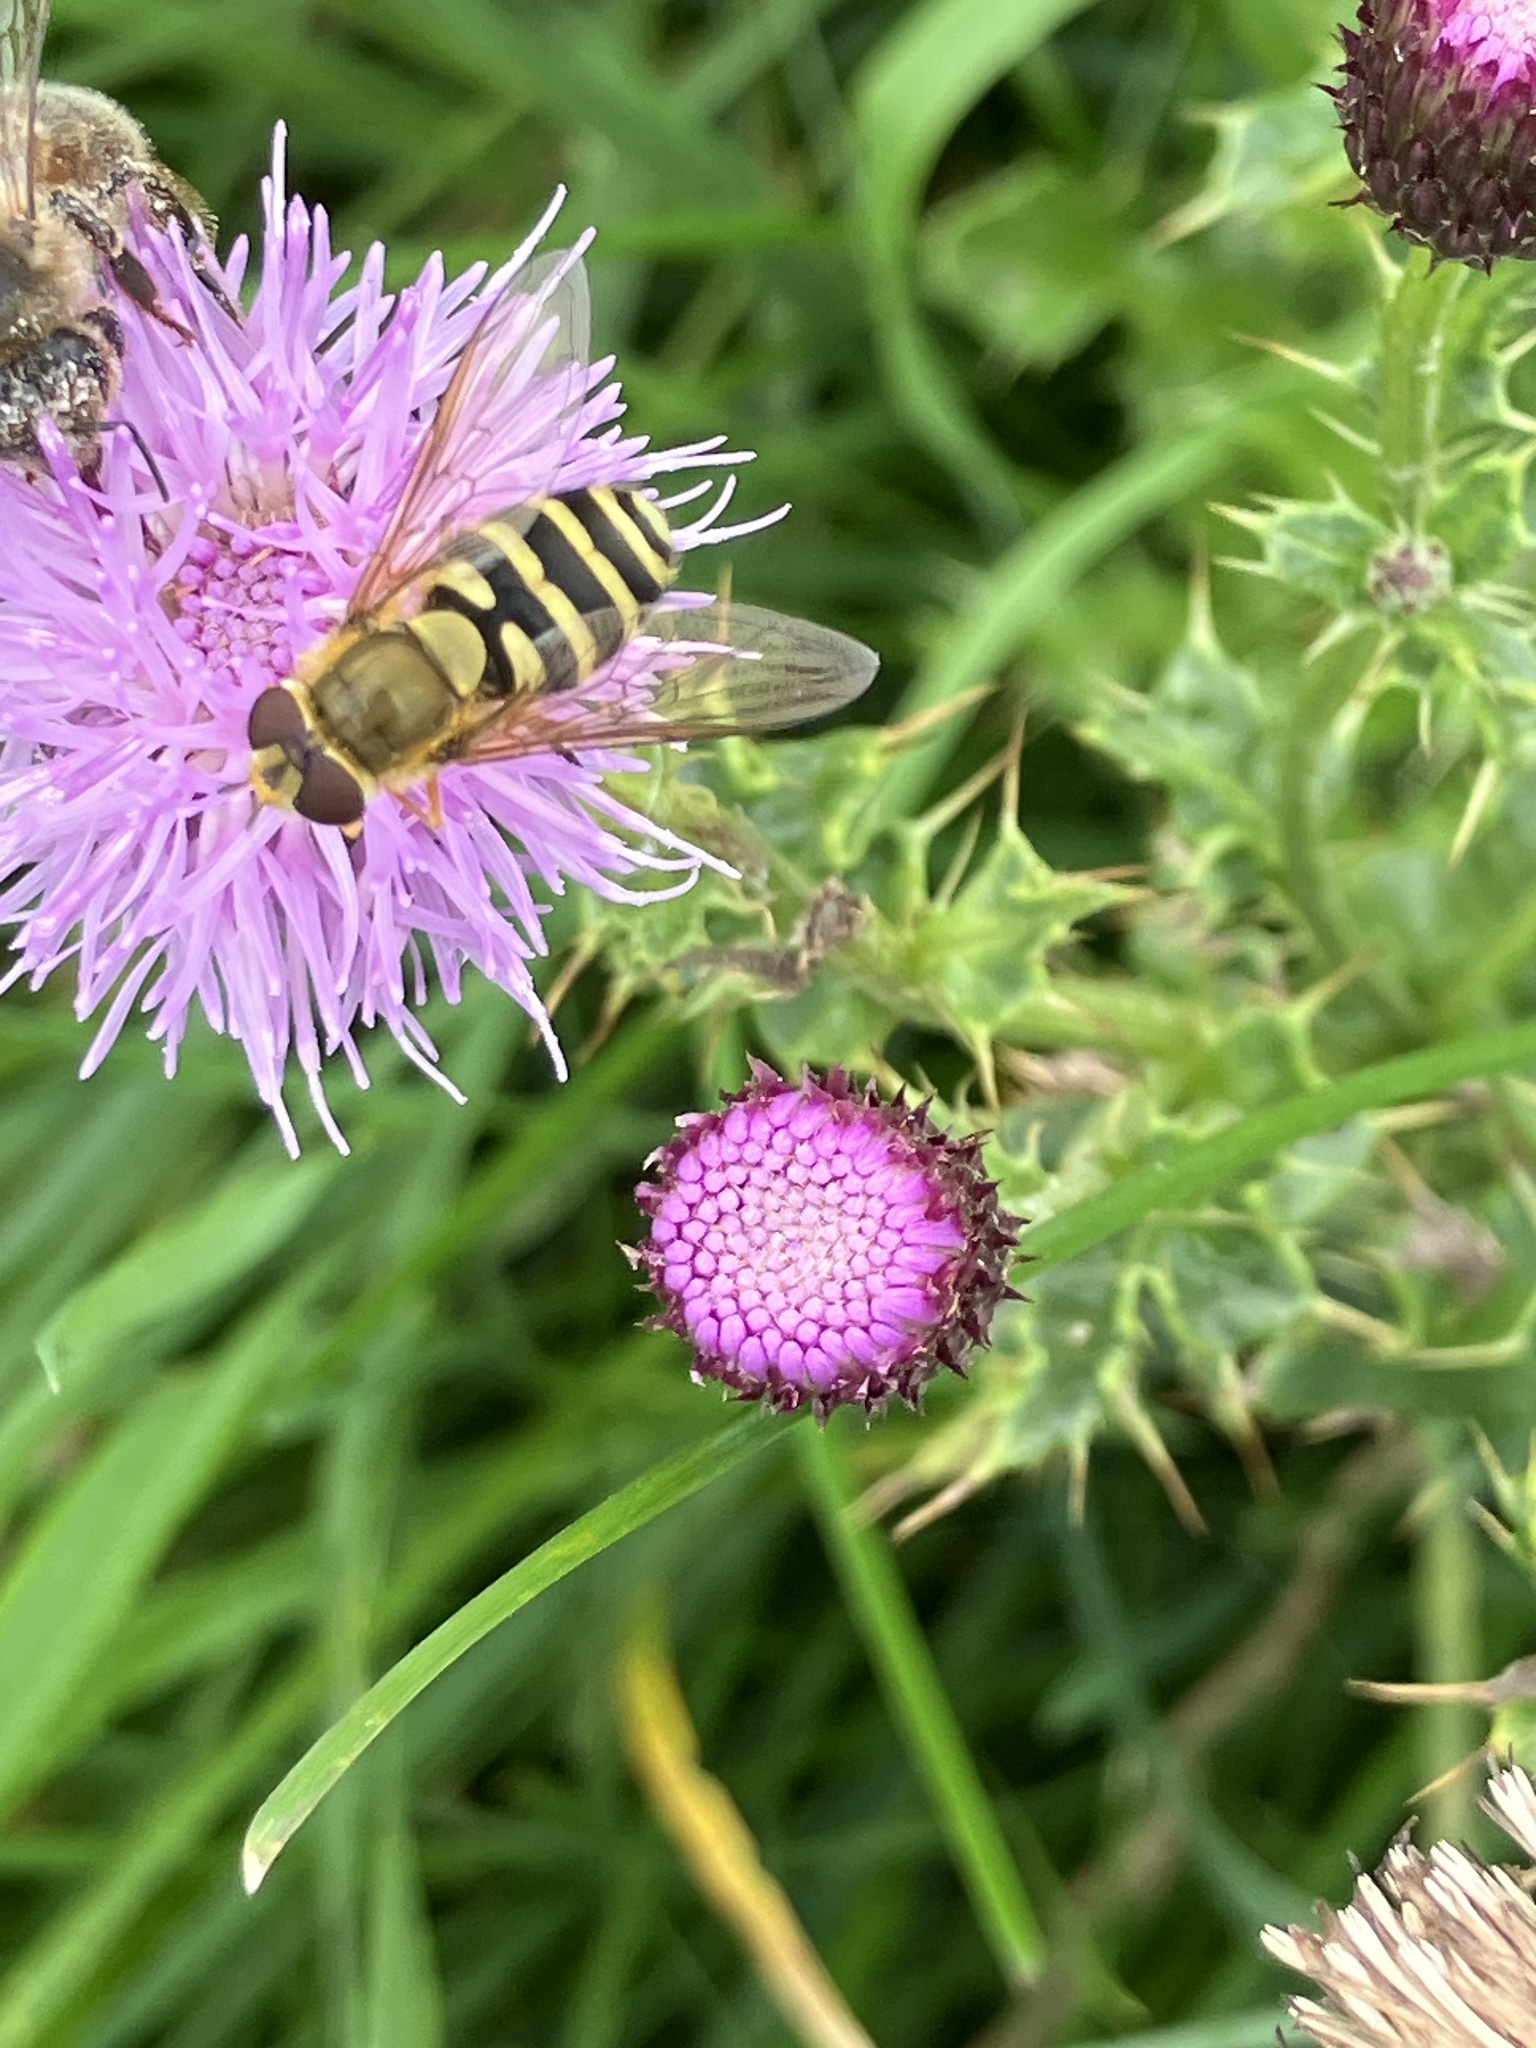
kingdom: Animalia
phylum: Arthropoda
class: Insecta
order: Diptera
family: Syrphidae
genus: Syrphus
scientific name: Syrphus
